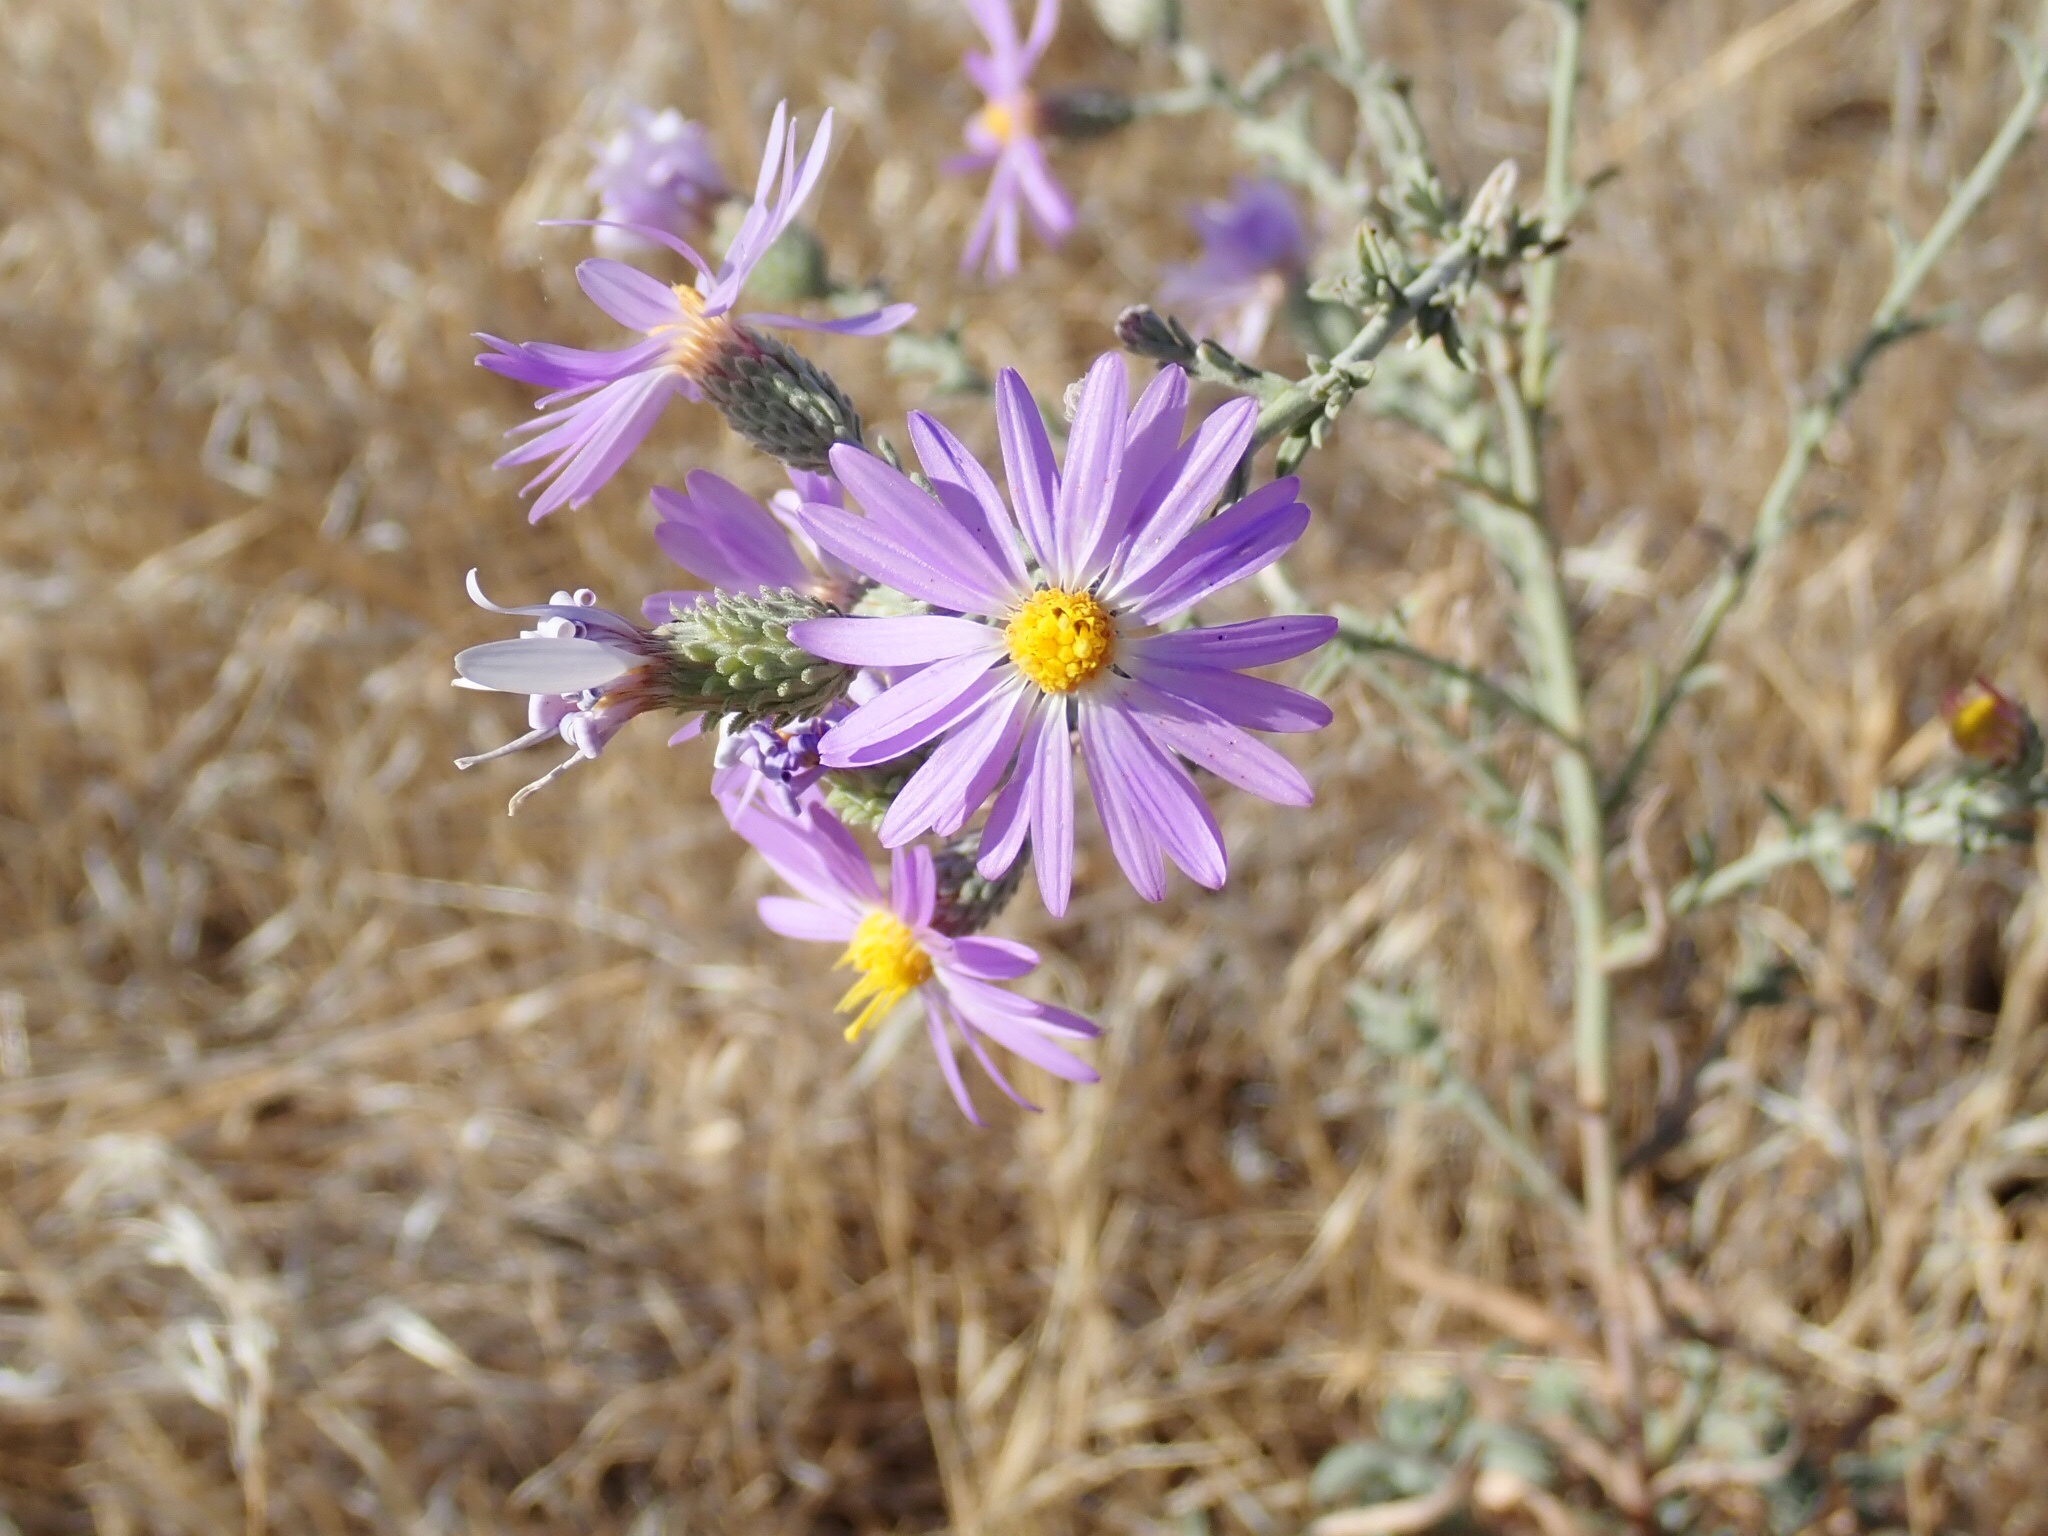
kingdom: Plantae
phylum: Tracheophyta
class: Magnoliopsida
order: Asterales
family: Asteraceae
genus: Dieteria
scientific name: Dieteria canescens
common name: Hoary-aster
